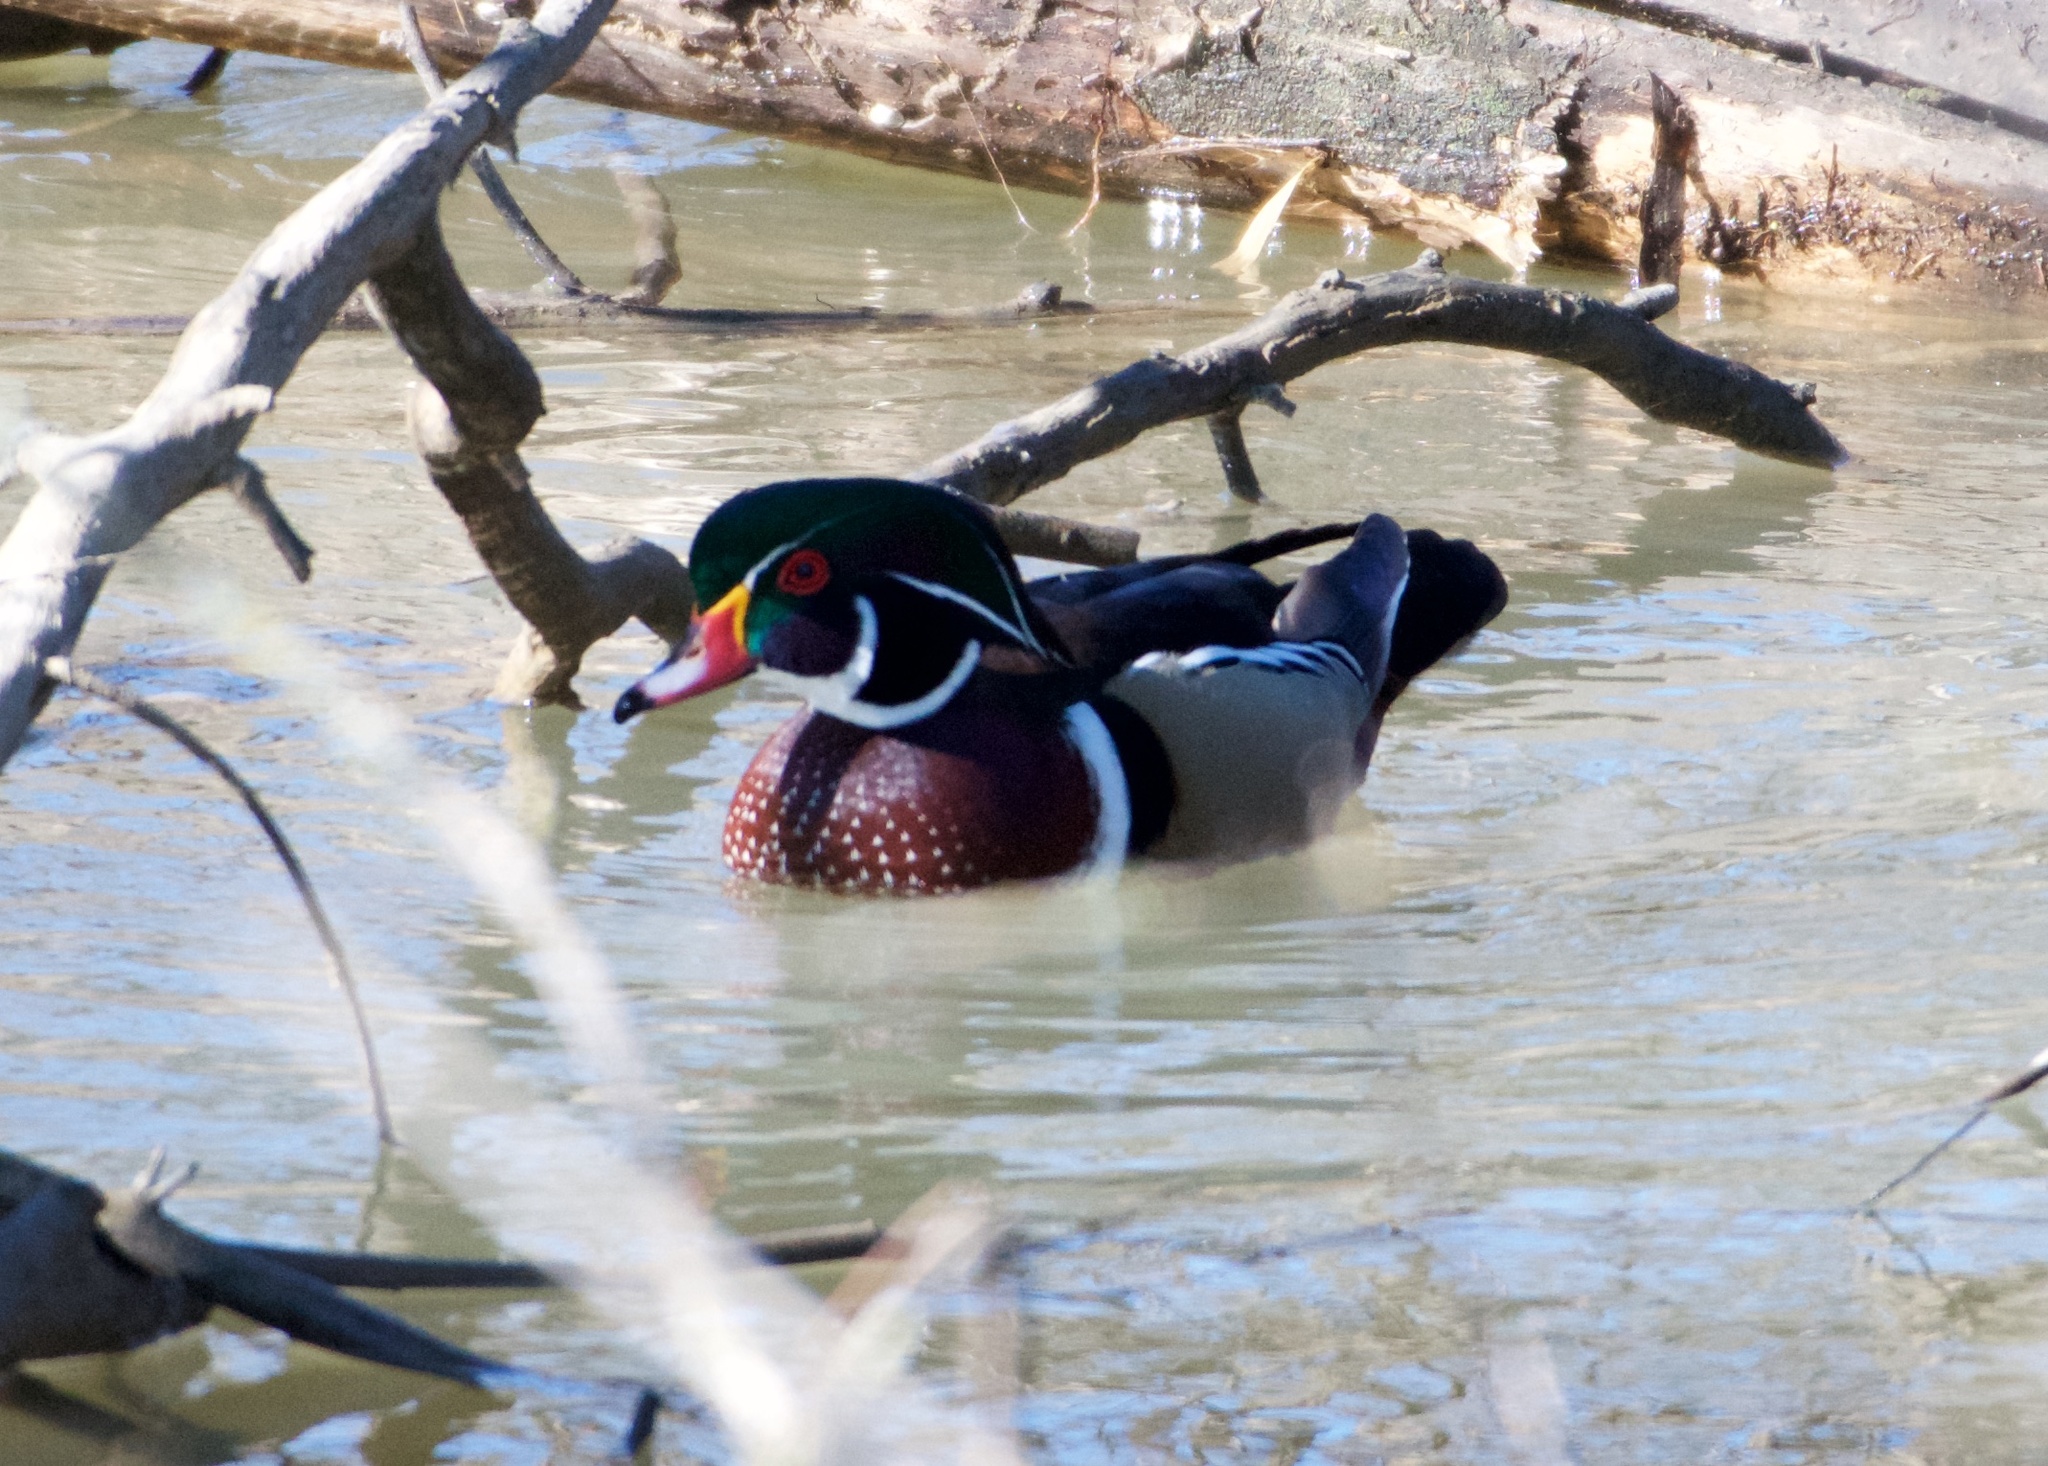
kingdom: Animalia
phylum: Chordata
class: Aves
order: Anseriformes
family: Anatidae
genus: Aix
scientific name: Aix sponsa
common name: Wood duck
